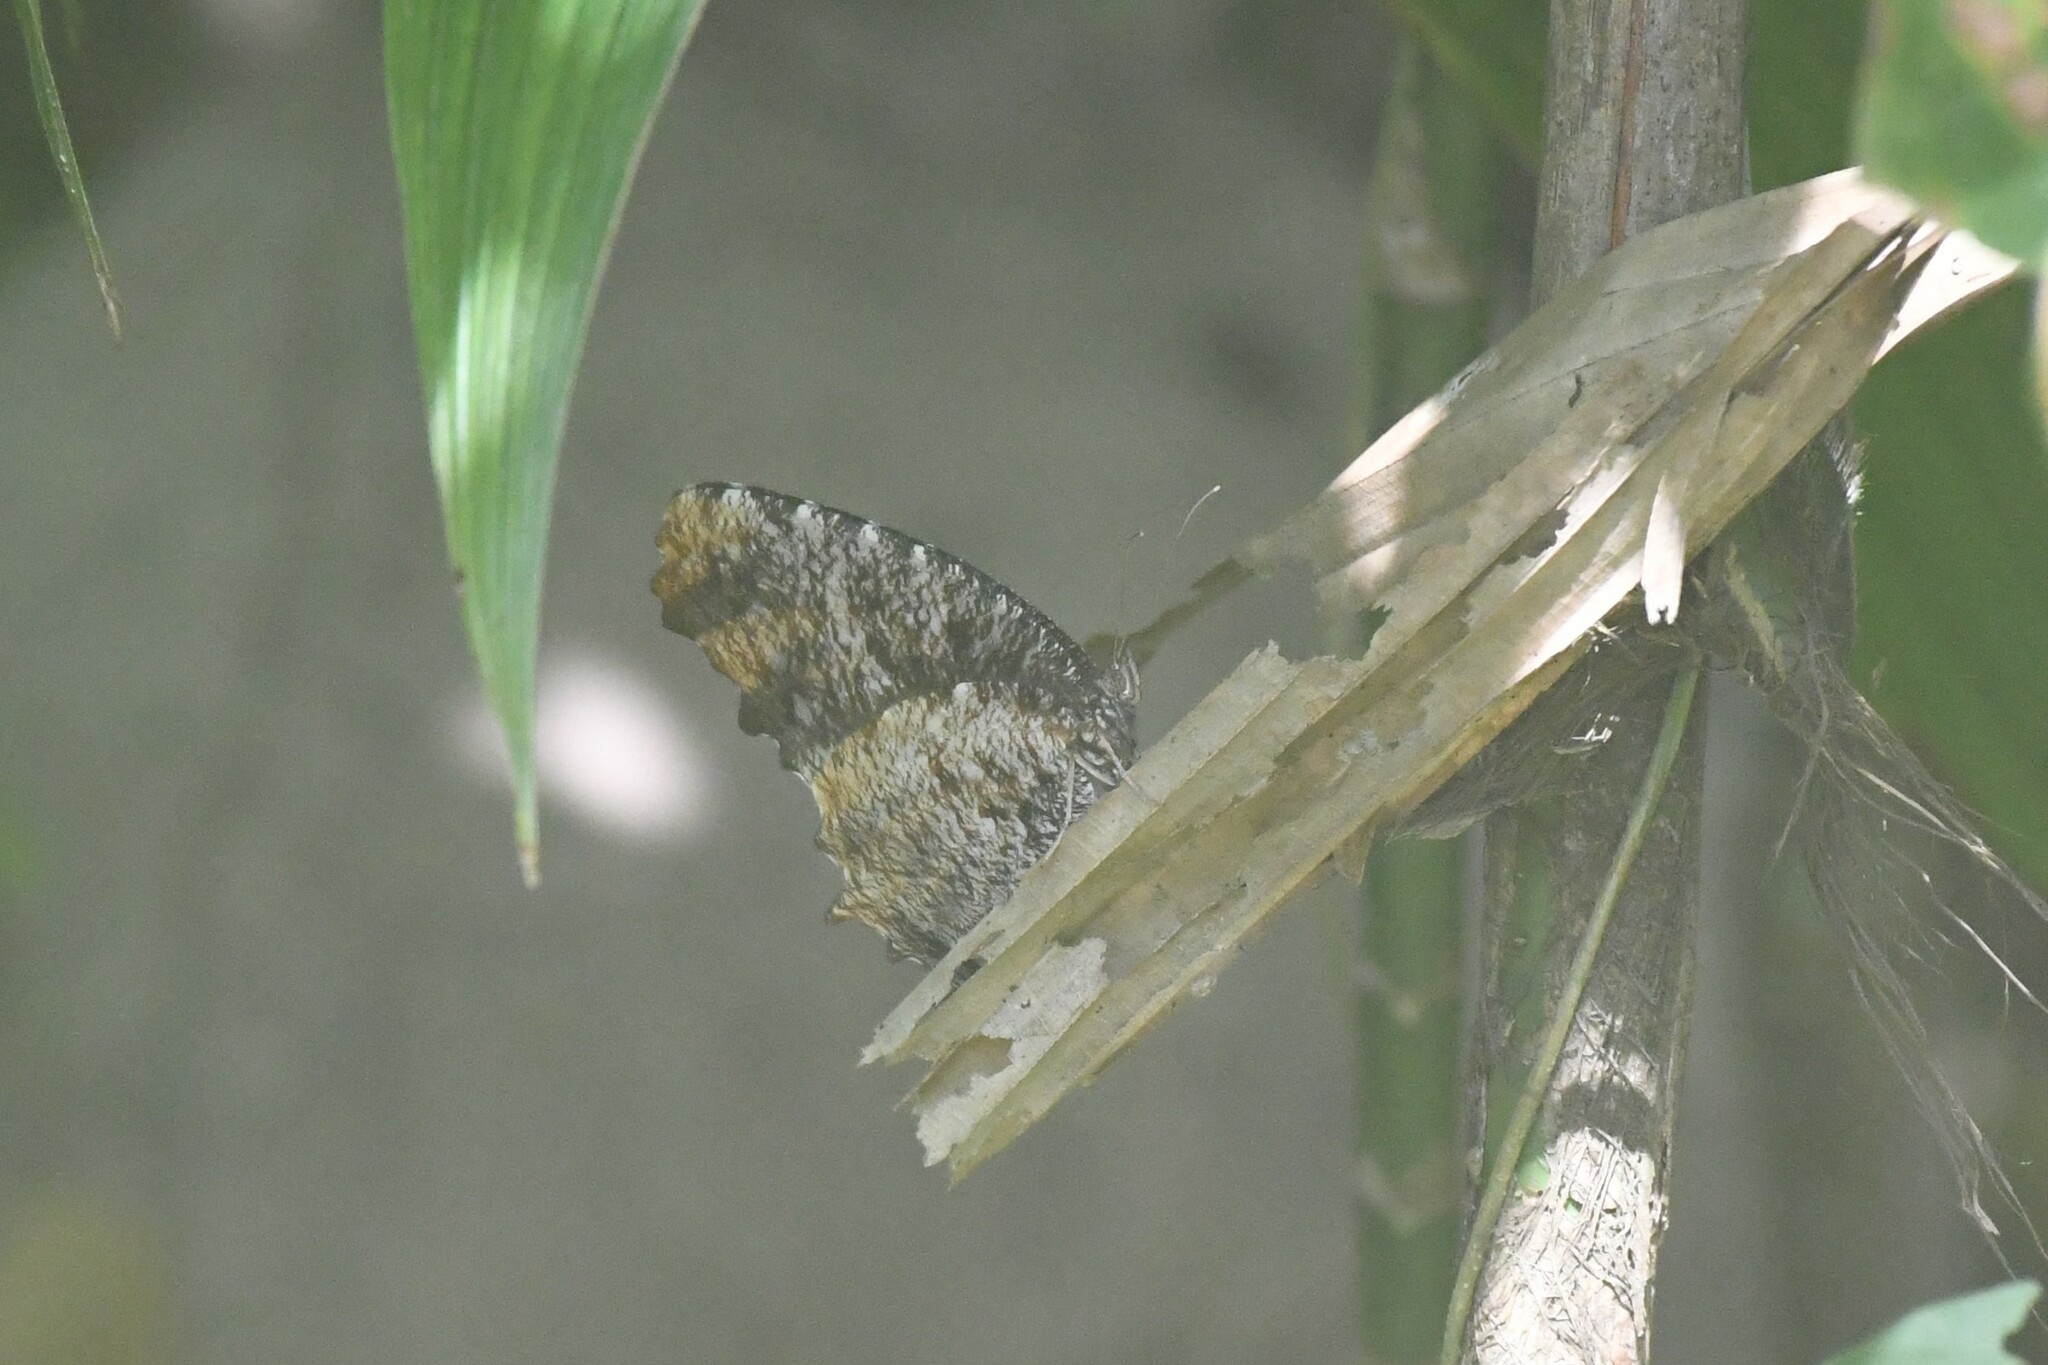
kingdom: Animalia
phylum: Arthropoda
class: Insecta
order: Lepidoptera
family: Nymphalidae
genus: Elymnias
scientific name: Elymnias nesaea
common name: Tiger palmfly
